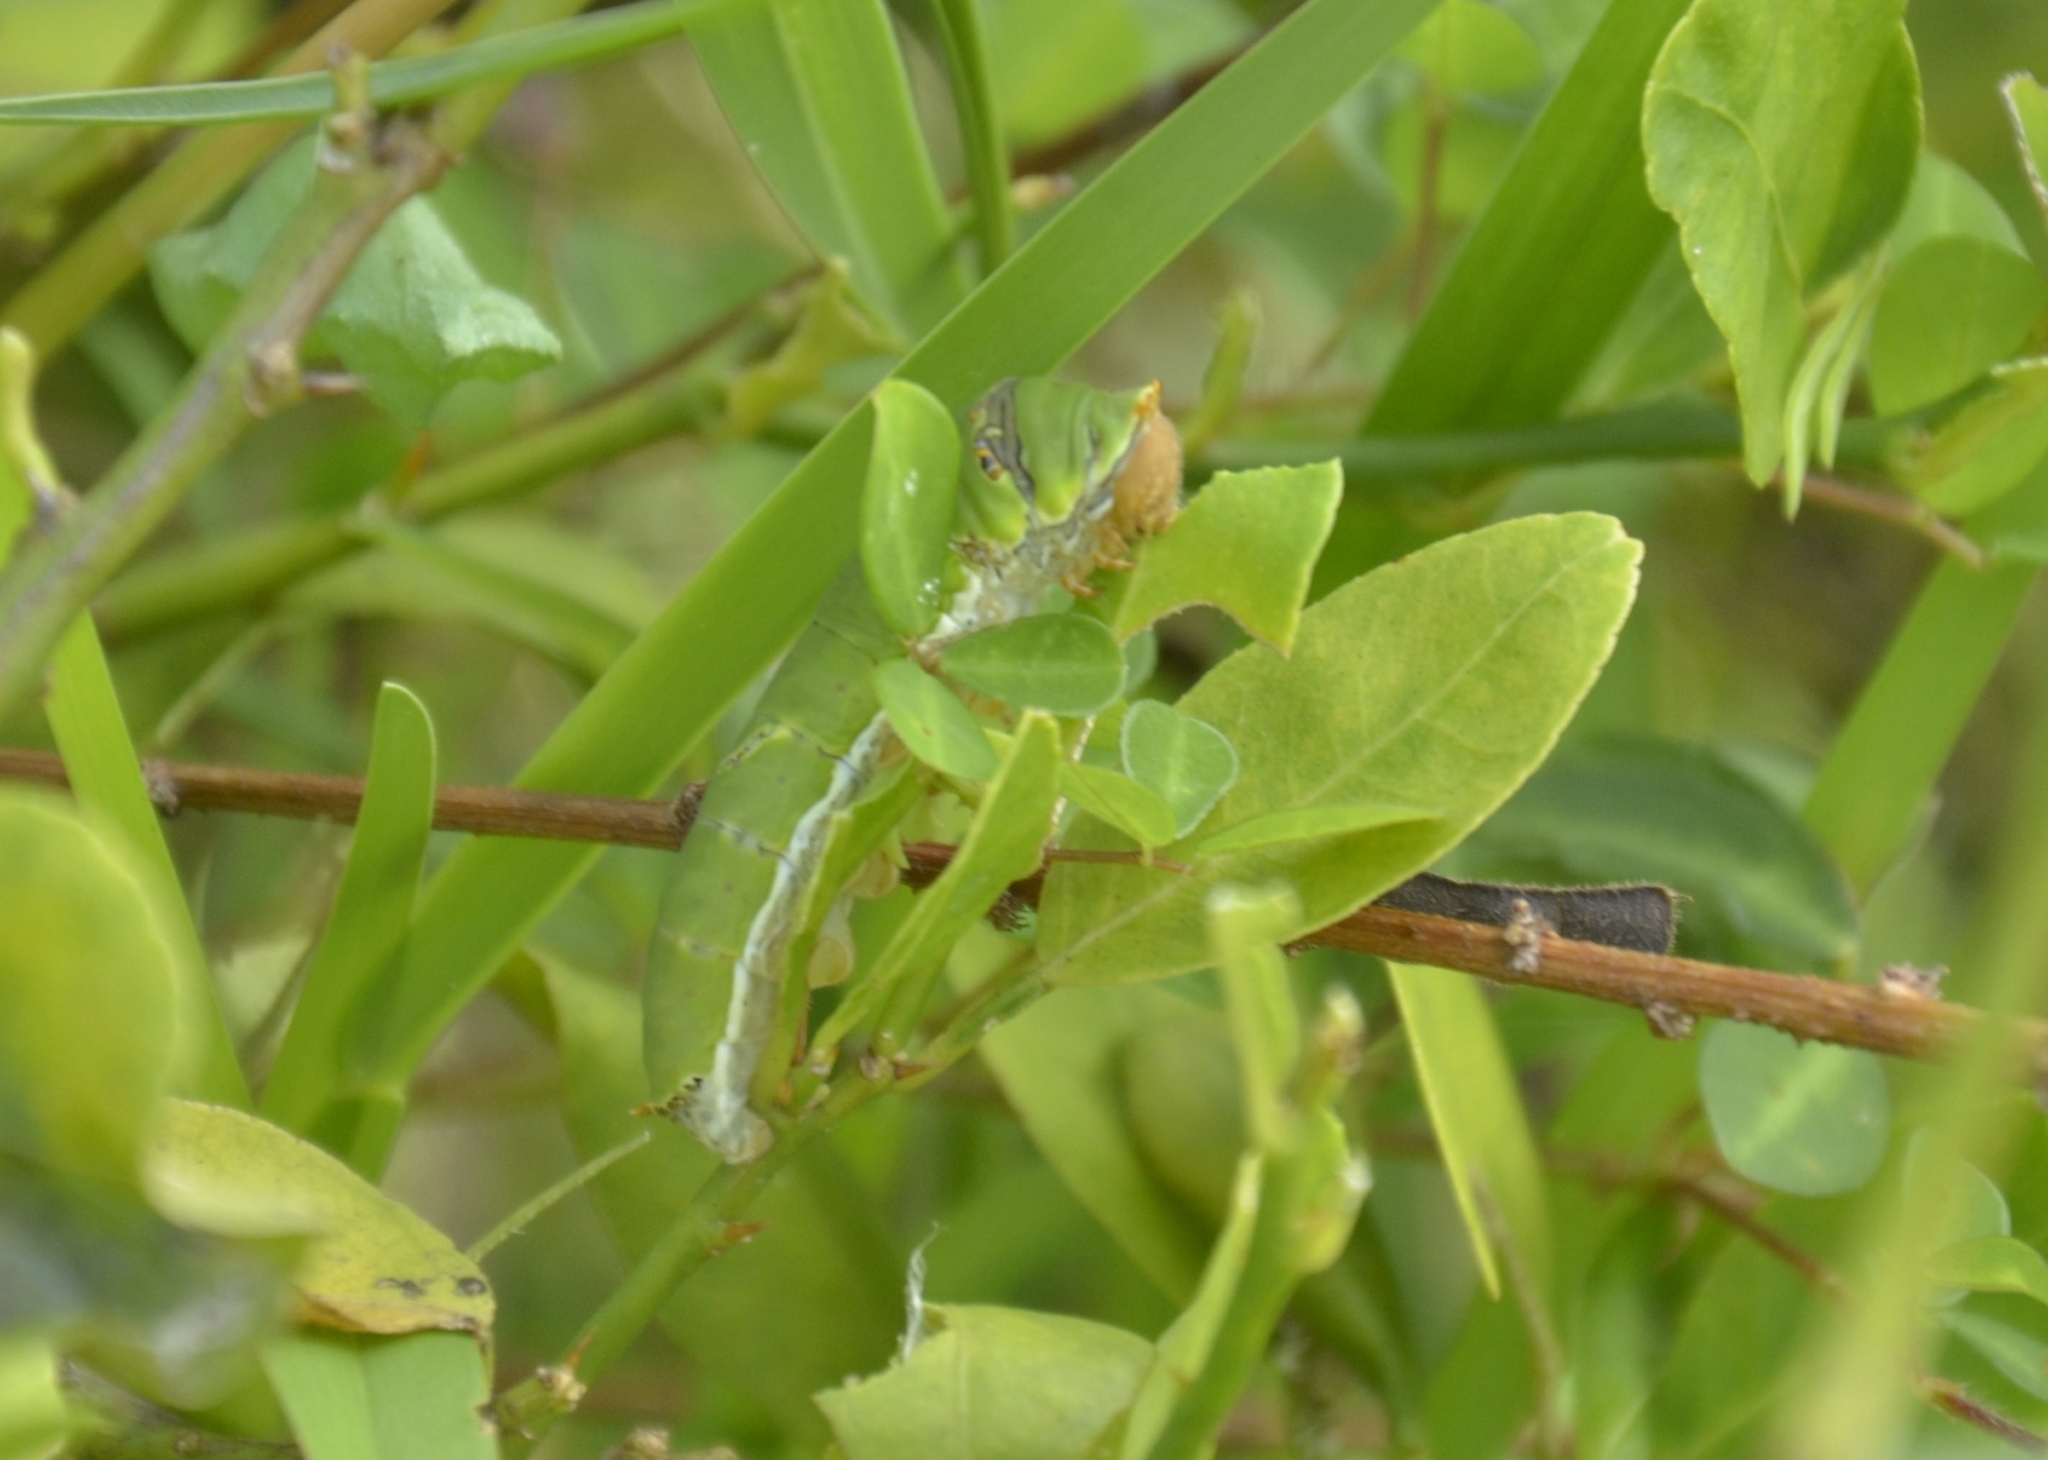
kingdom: Animalia
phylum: Arthropoda
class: Insecta
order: Lepidoptera
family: Papilionidae
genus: Papilio
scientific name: Papilio demoleus
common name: Lime butterfly
